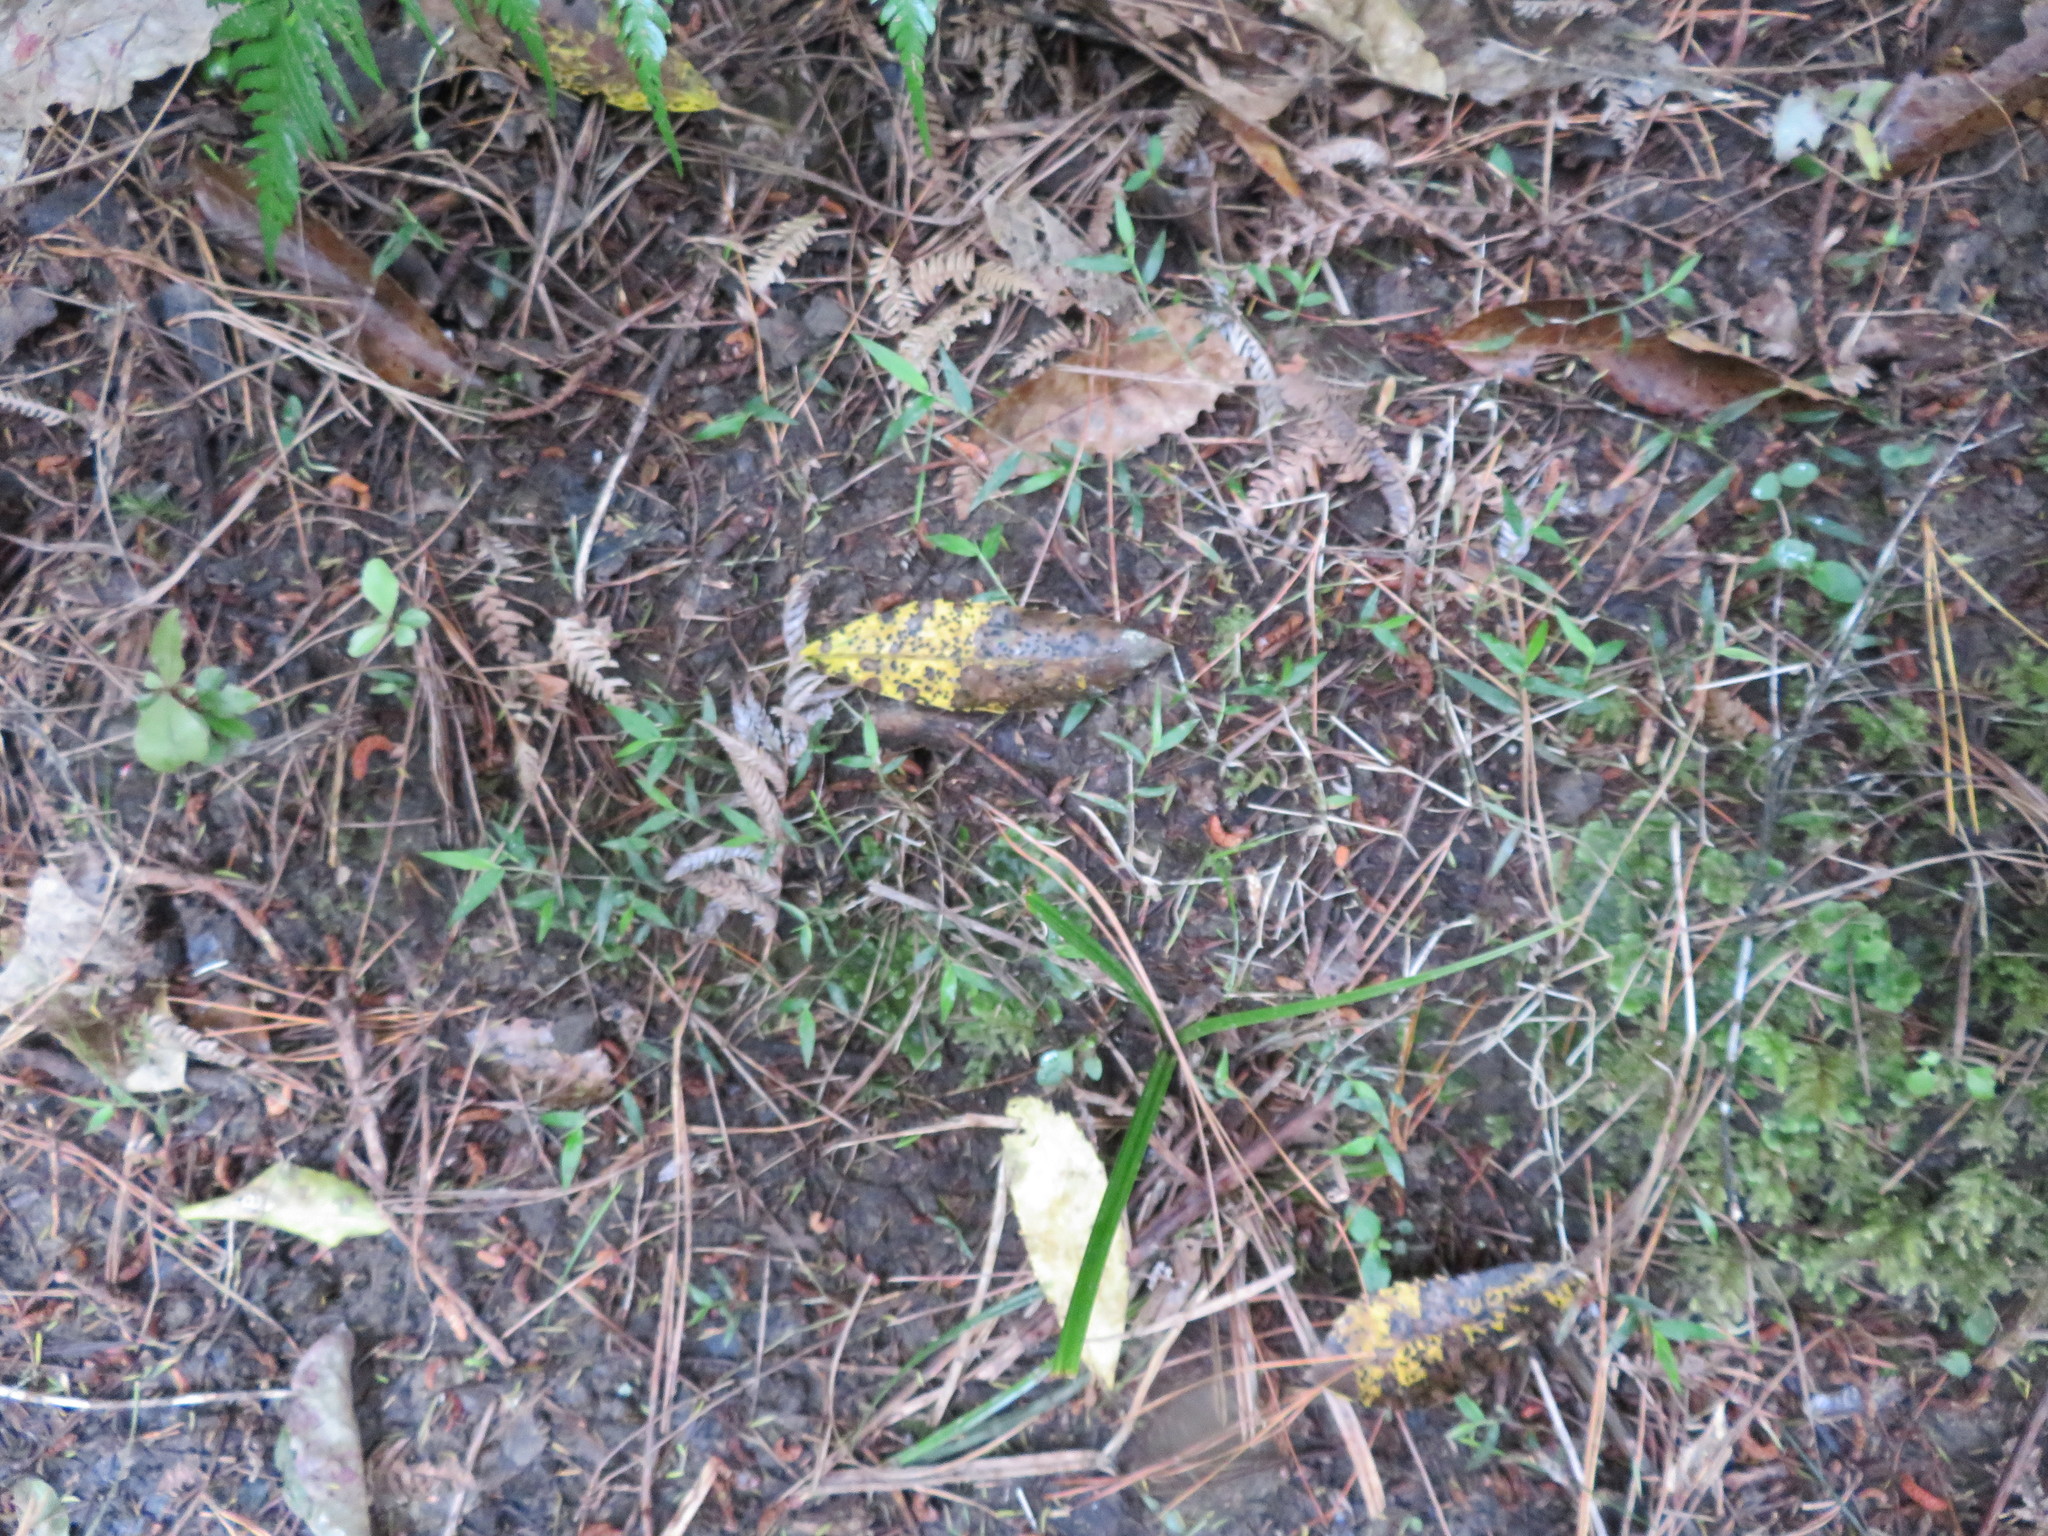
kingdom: Plantae
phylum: Tracheophyta
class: Liliopsida
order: Poales
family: Poaceae
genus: Oplismenus
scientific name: Oplismenus hirtellus
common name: Basketgrass
